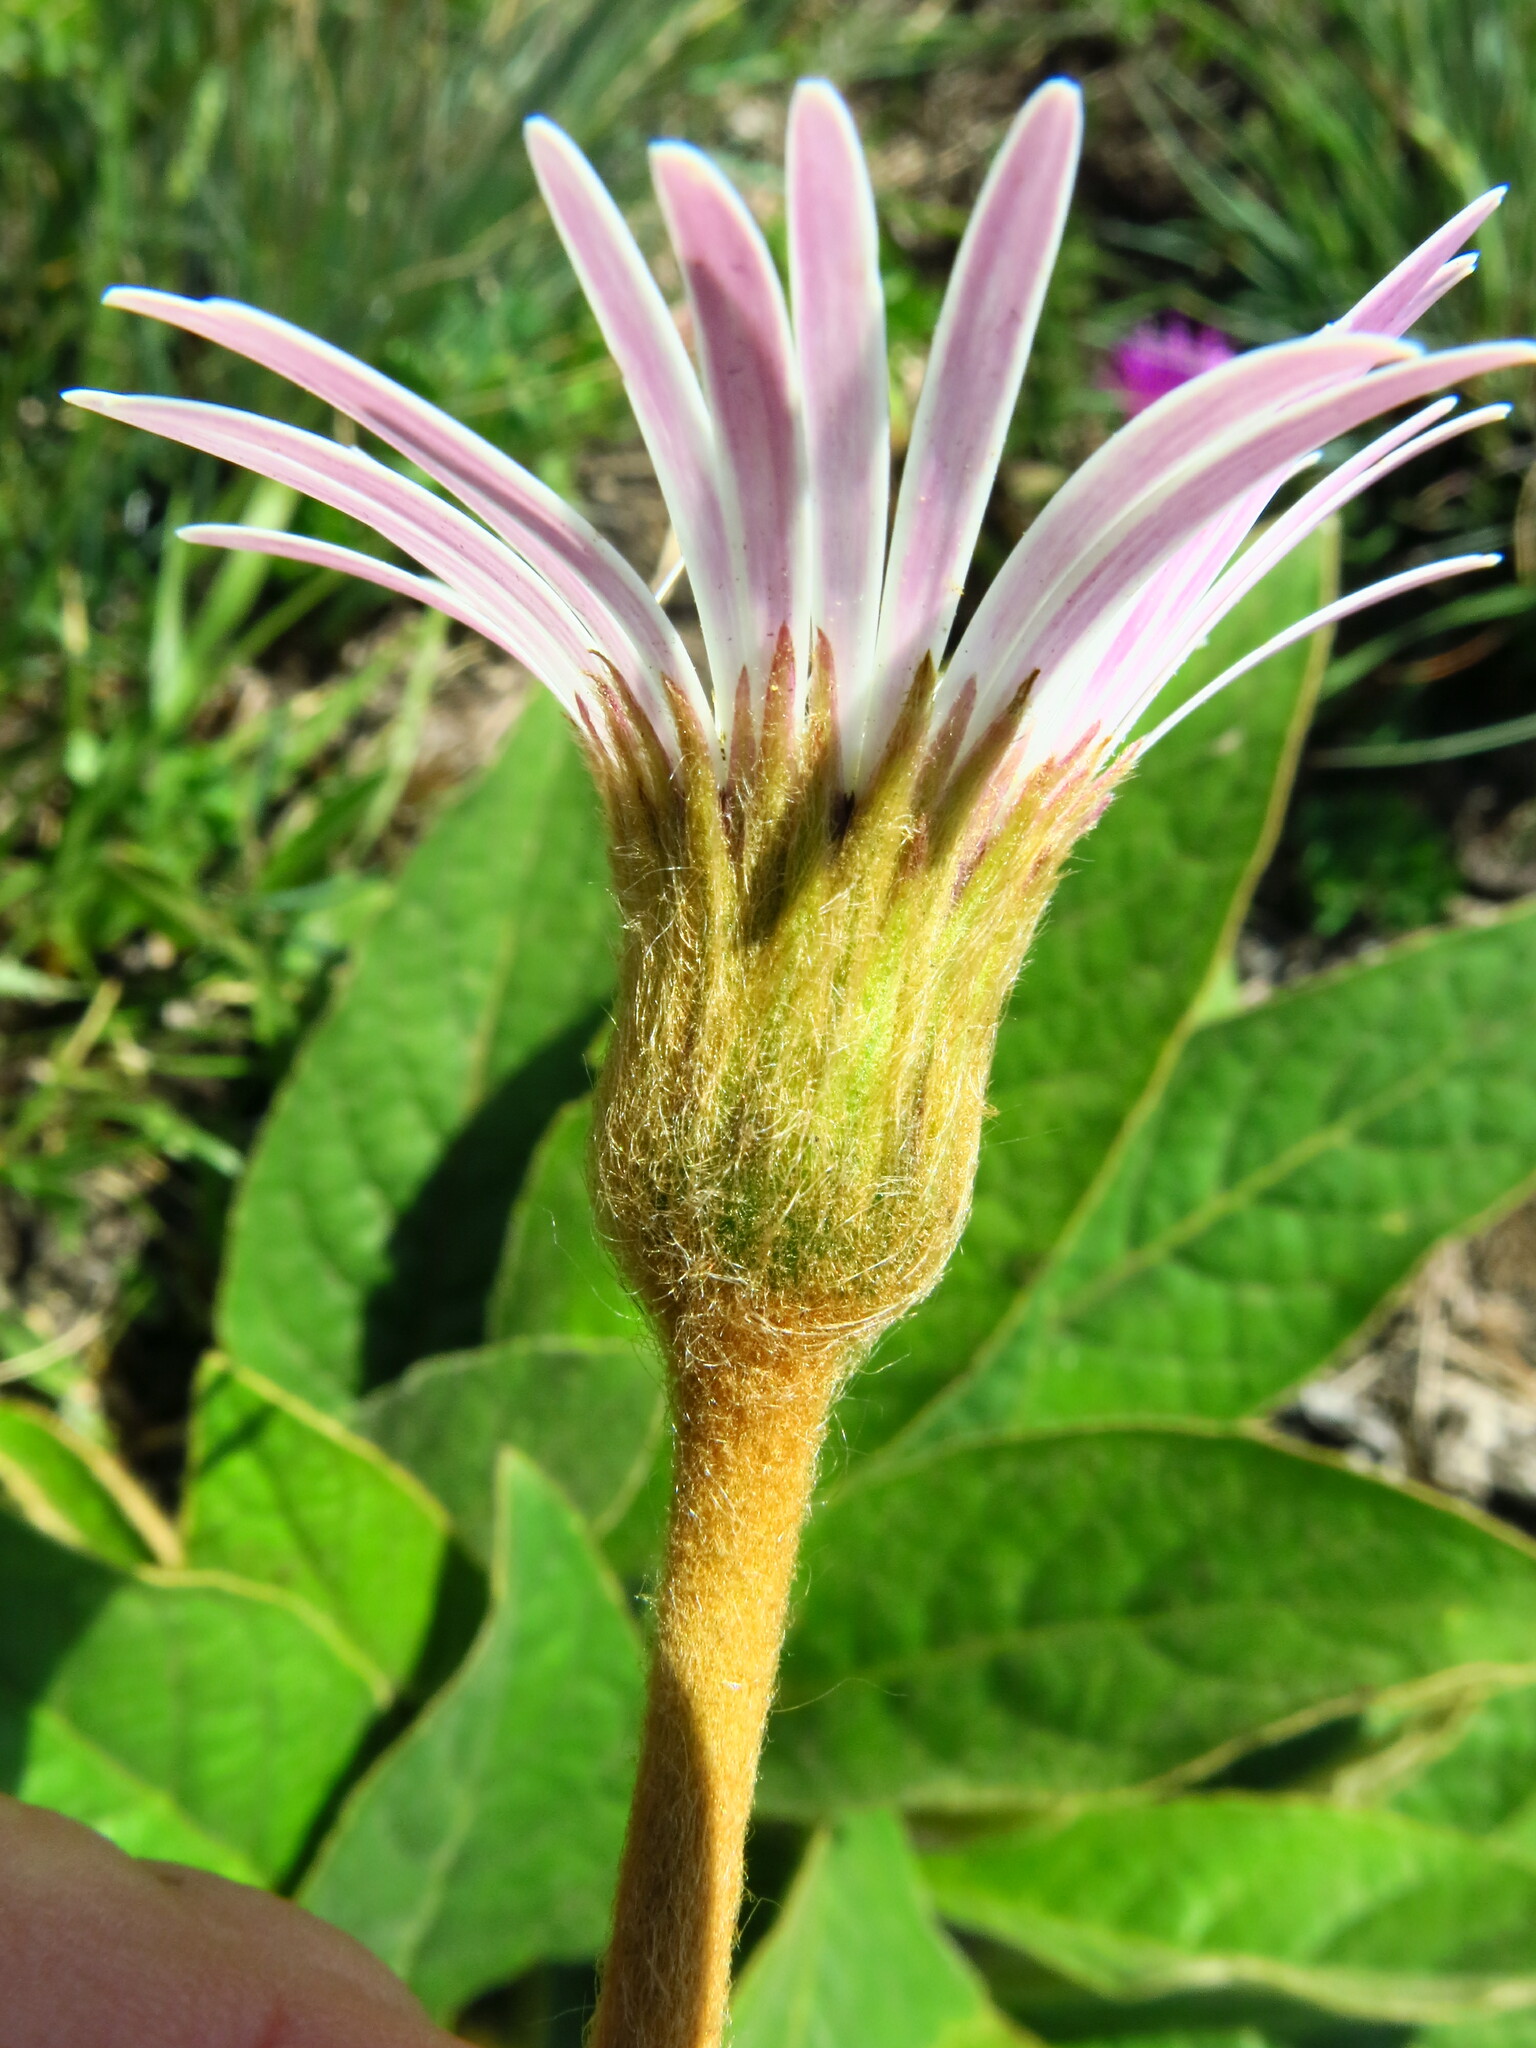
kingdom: Plantae
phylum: Tracheophyta
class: Magnoliopsida
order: Asterales
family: Asteraceae
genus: Gerbera
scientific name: Gerbera ambigua
